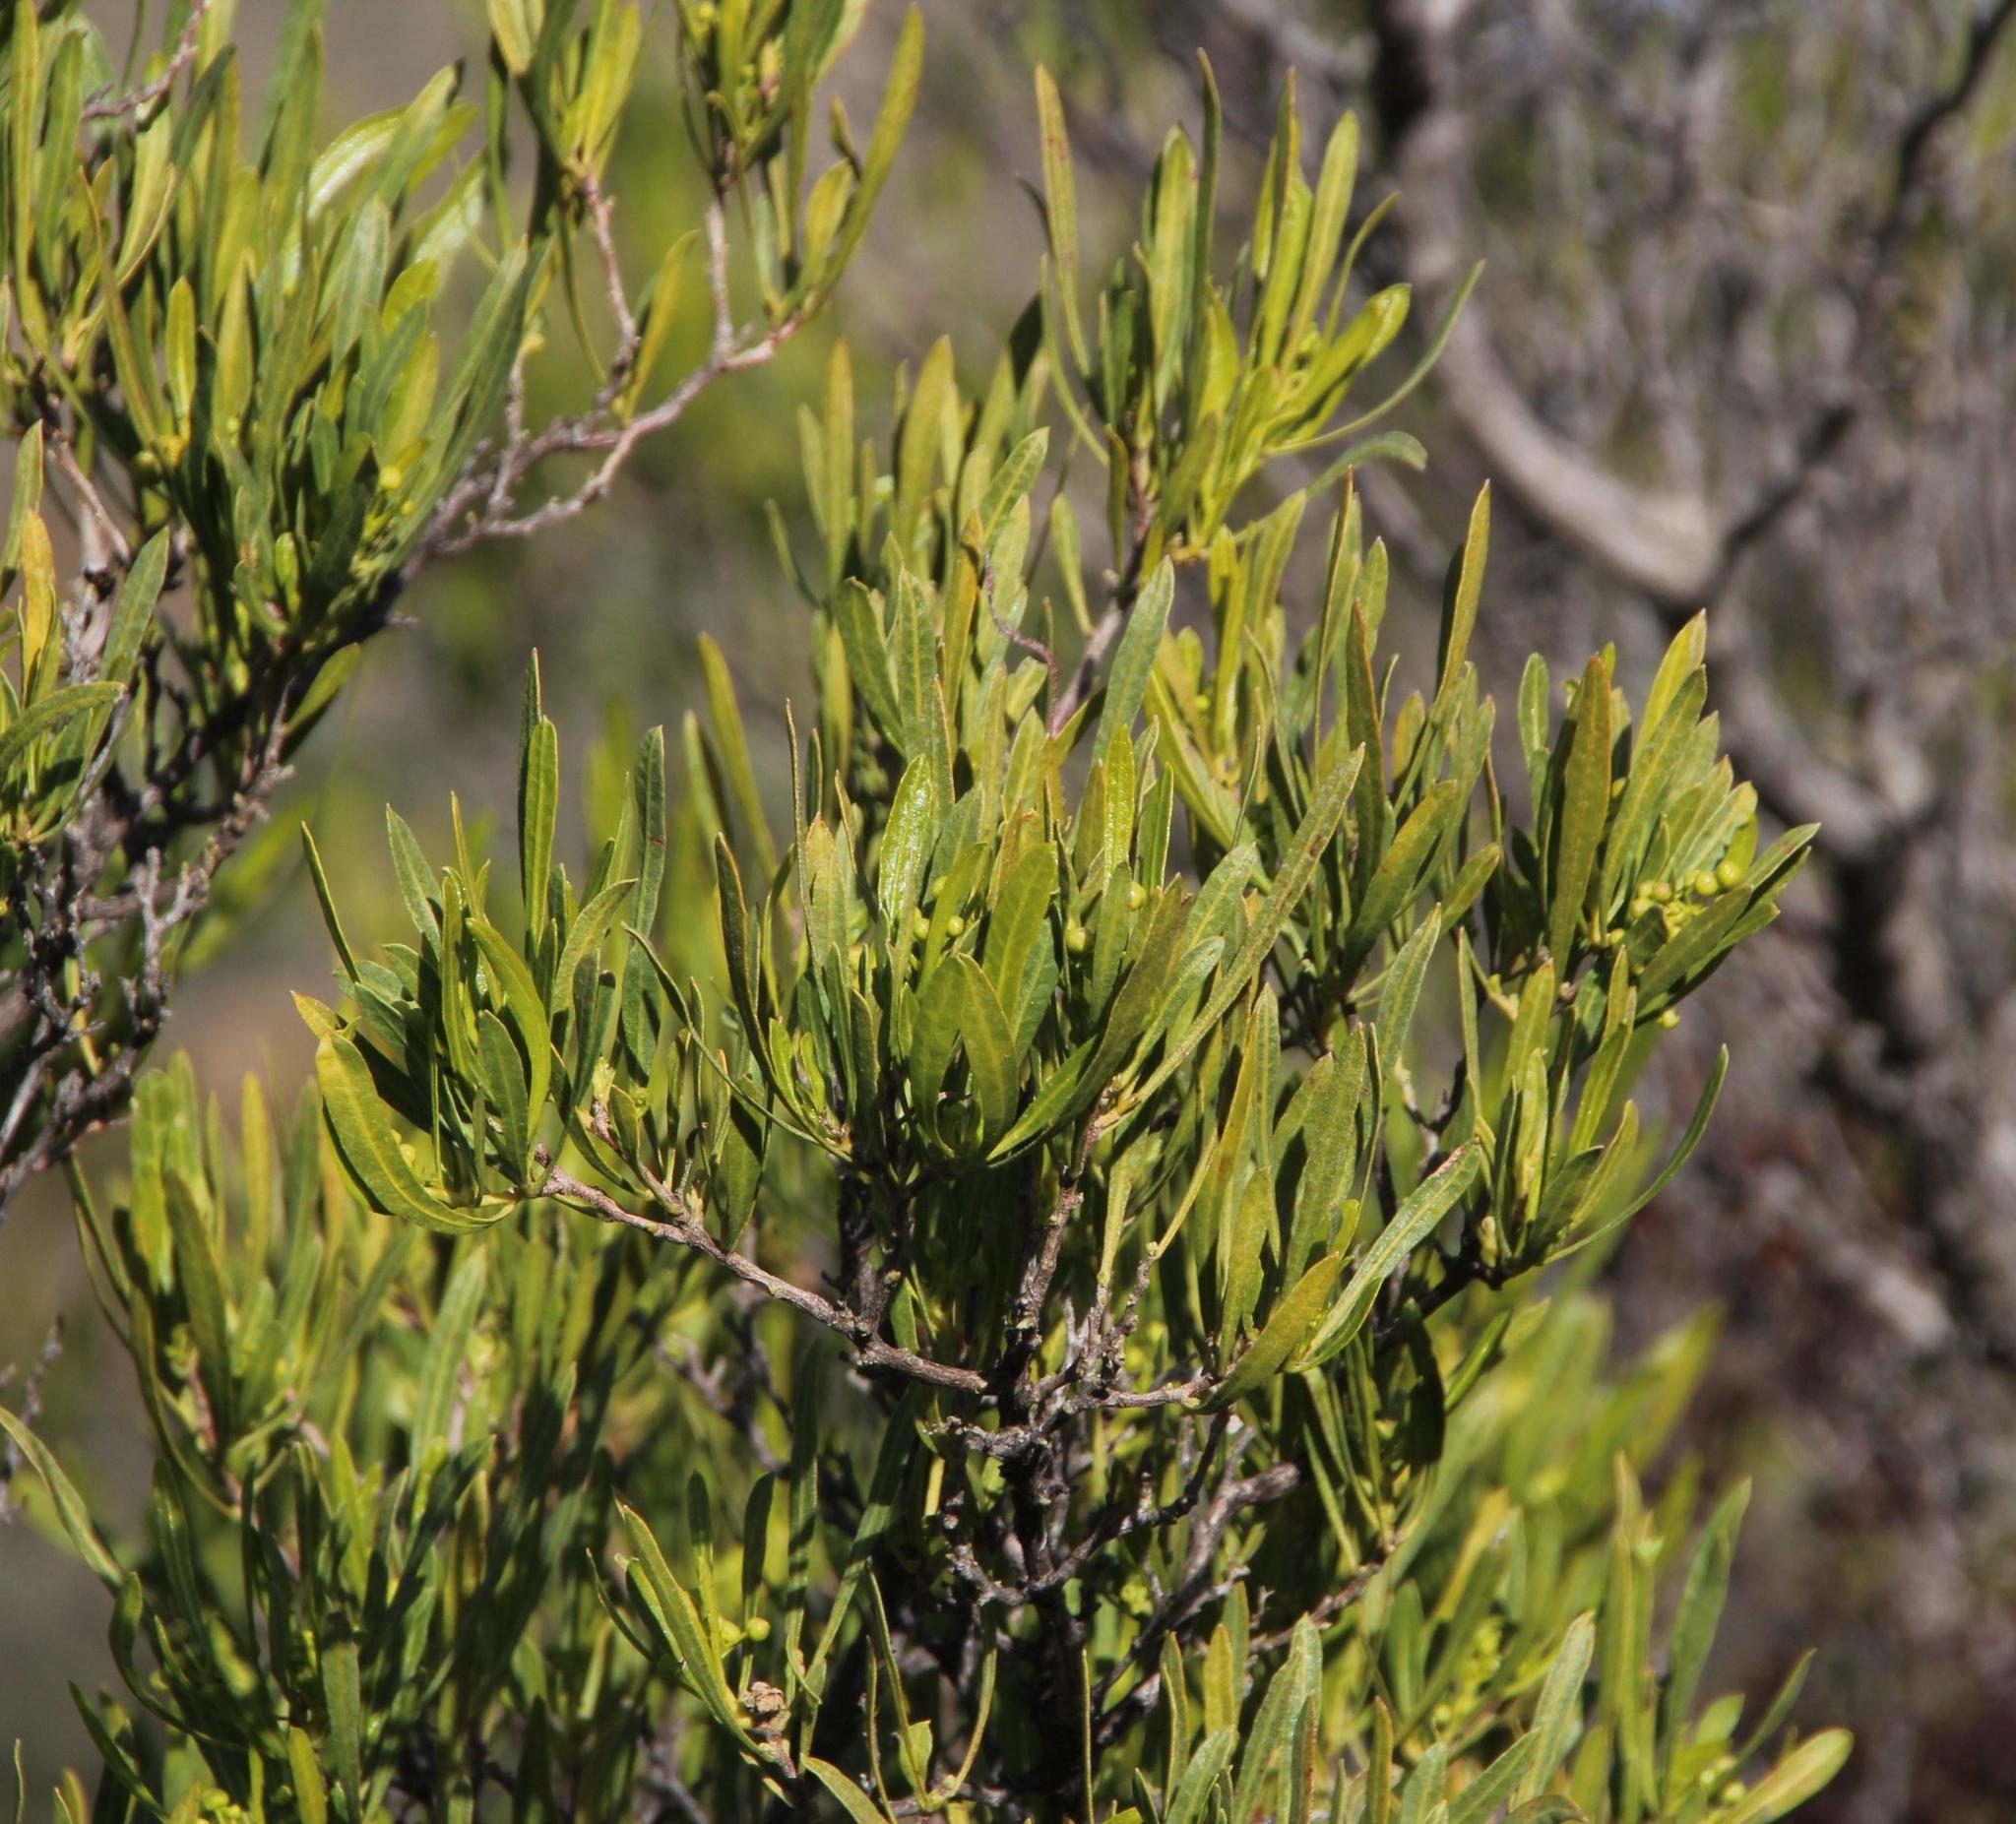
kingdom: Plantae
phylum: Tracheophyta
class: Magnoliopsida
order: Sapindales
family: Sapindaceae
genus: Dodonaea
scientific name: Dodonaea viscosa
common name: Hopbush
